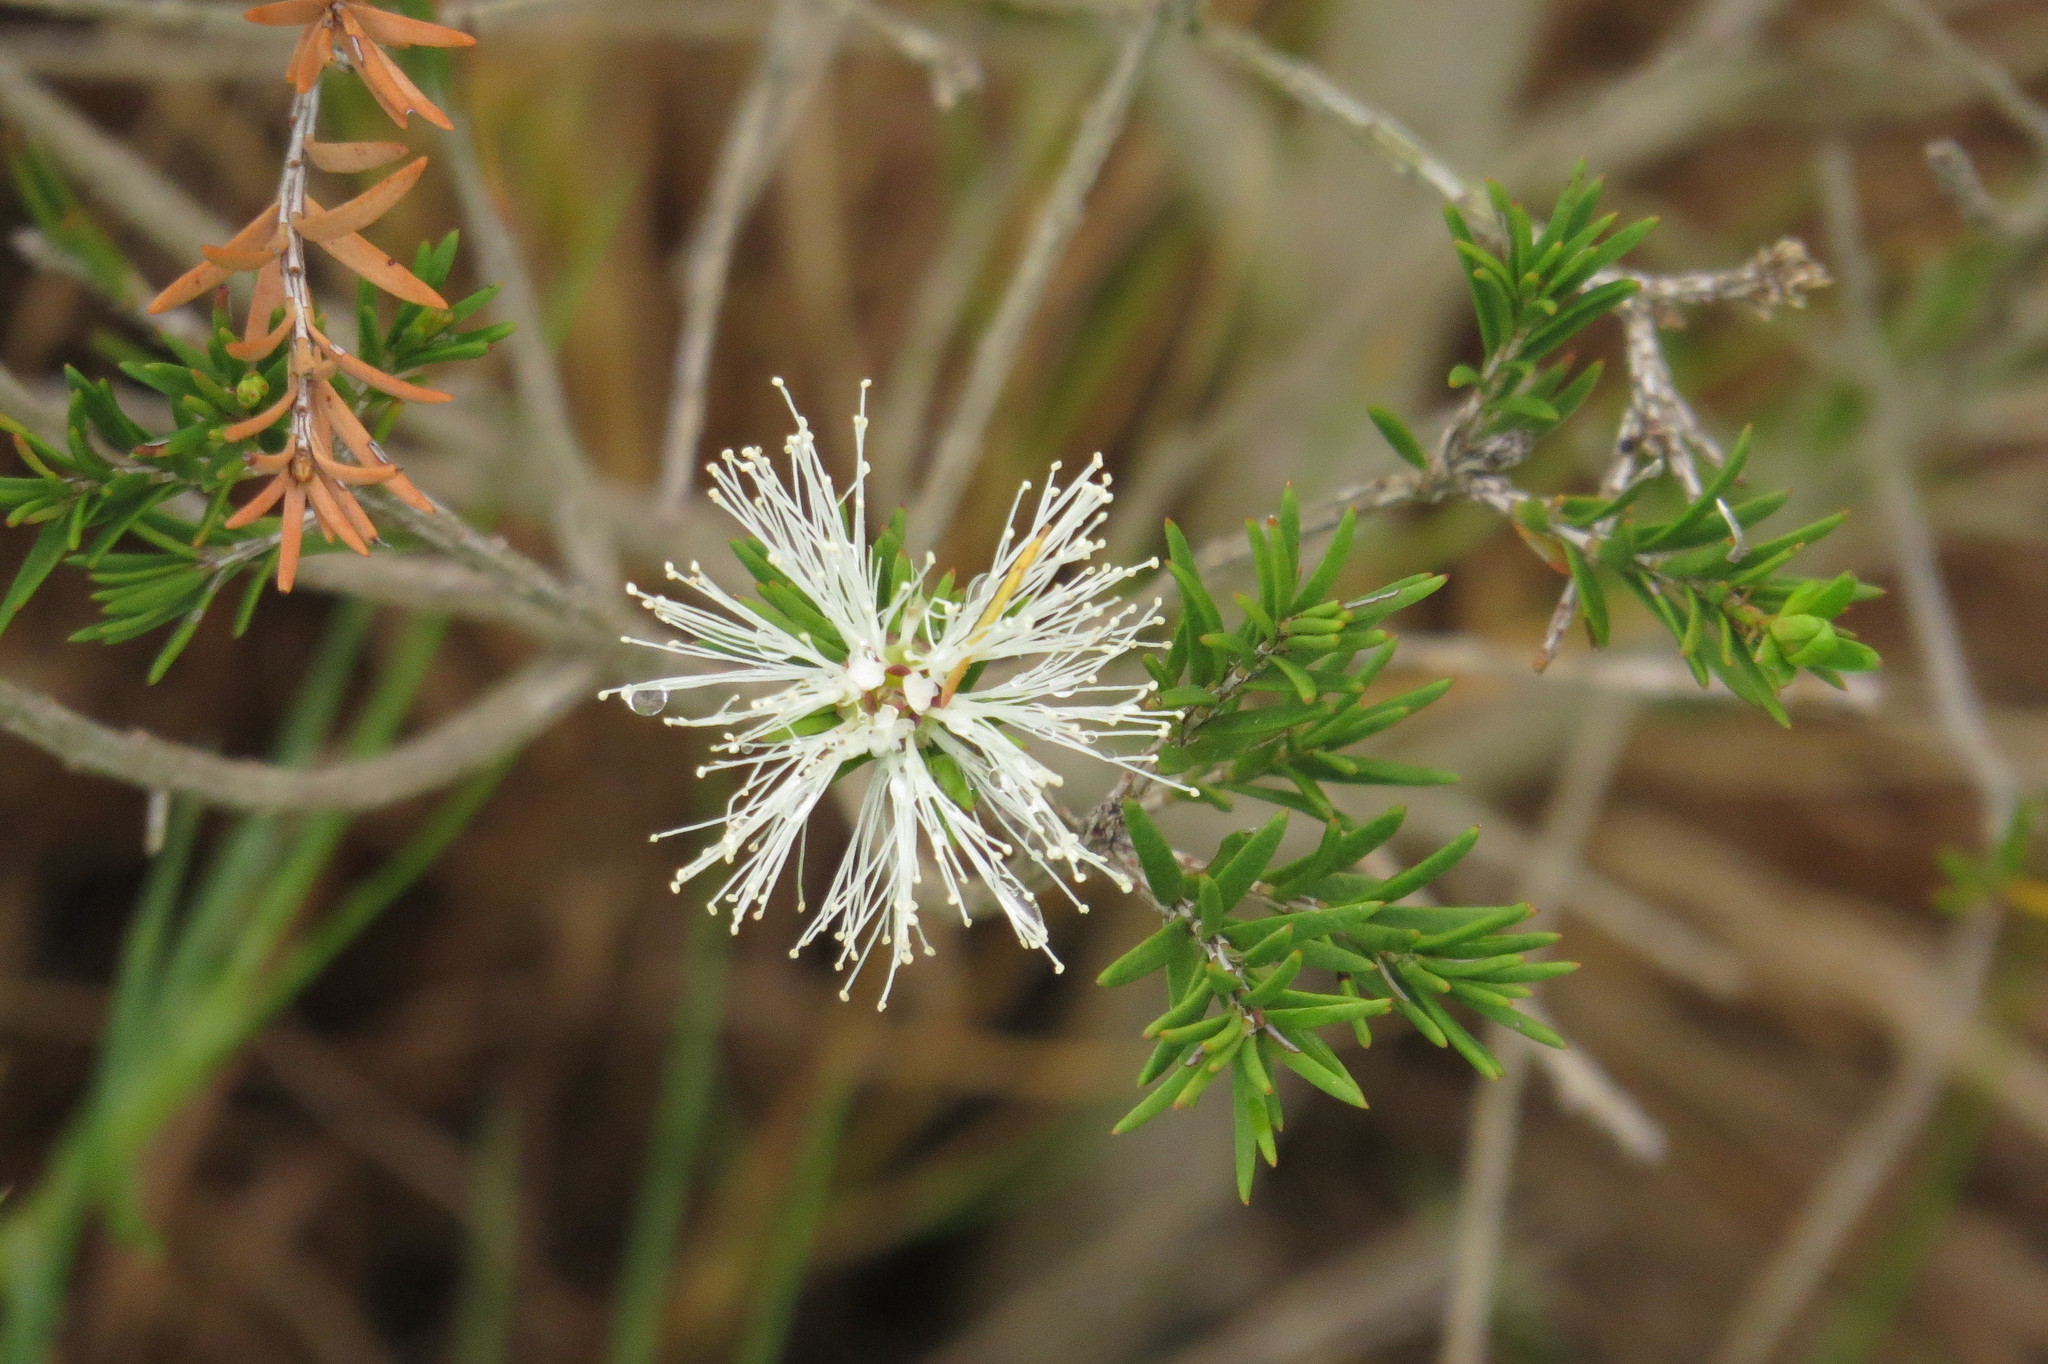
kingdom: Plantae
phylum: Tracheophyta
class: Magnoliopsida
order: Myrtales
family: Myrtaceae
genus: Melaleuca
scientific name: Melaleuca ericifolia
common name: Paperbark teatree
